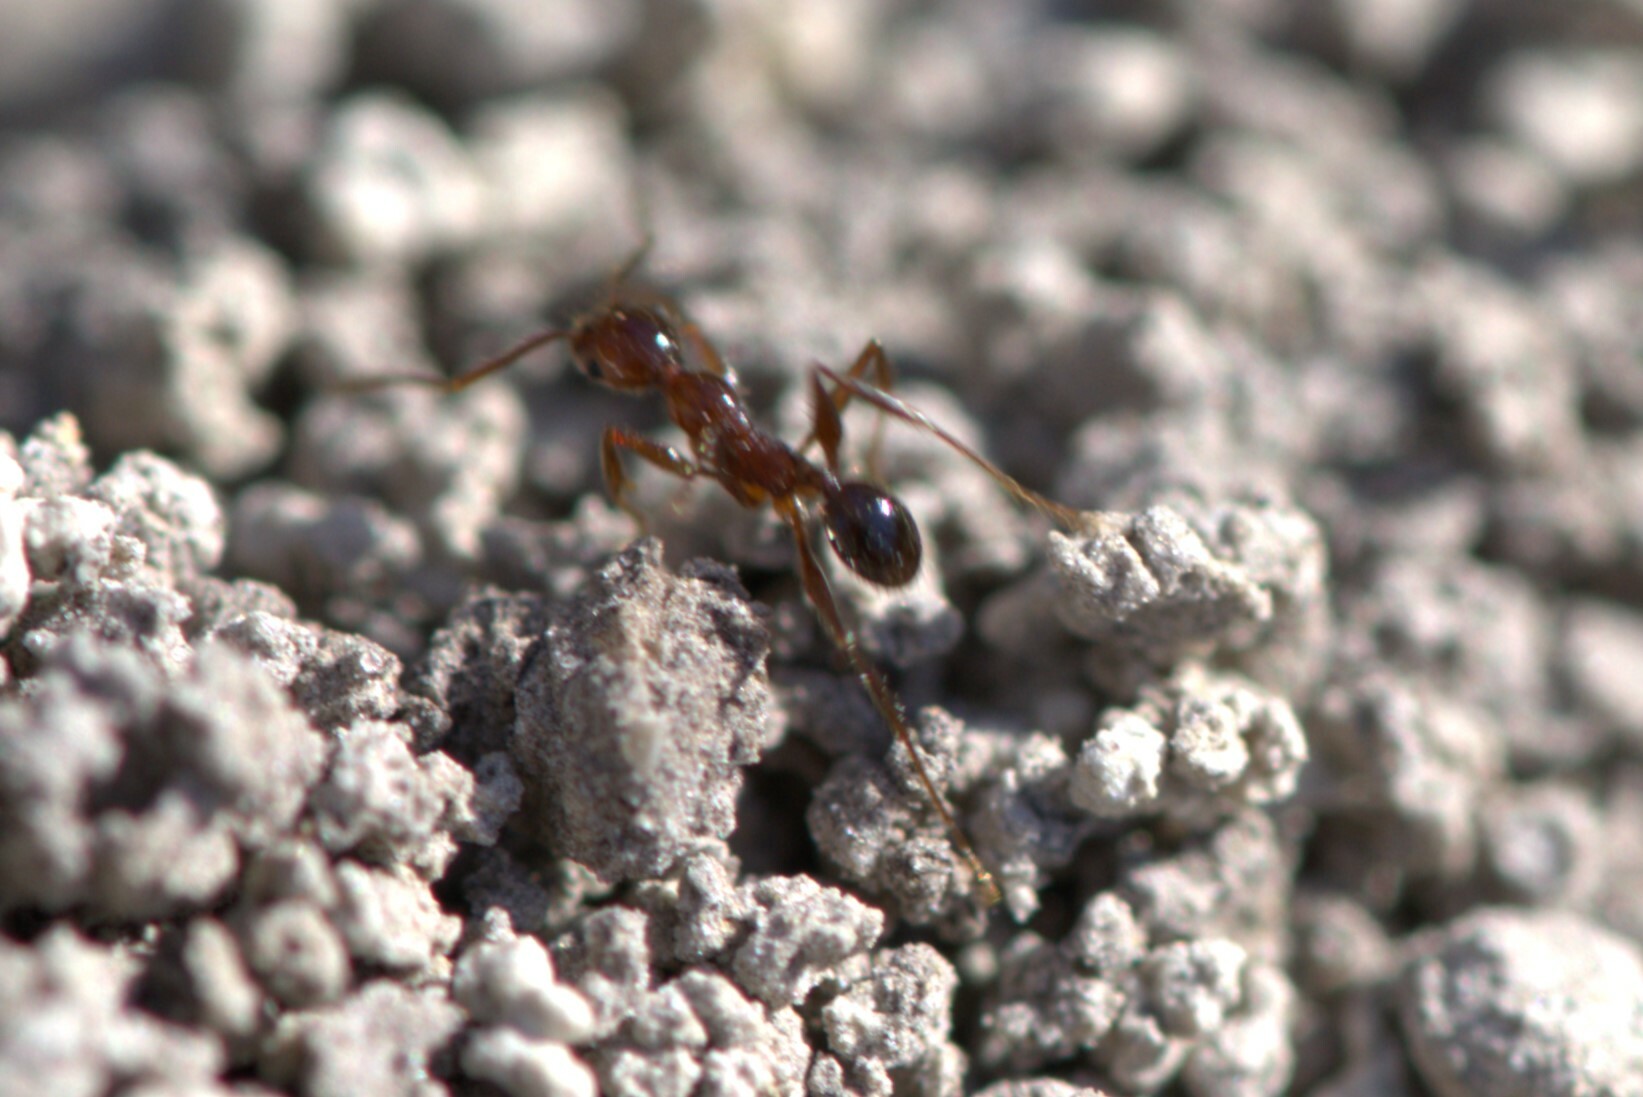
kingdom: Animalia
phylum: Arthropoda
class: Insecta
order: Hymenoptera
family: Formicidae
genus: Pheidole
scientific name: Pheidole obscurithorax
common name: Obscure big-headed ant
